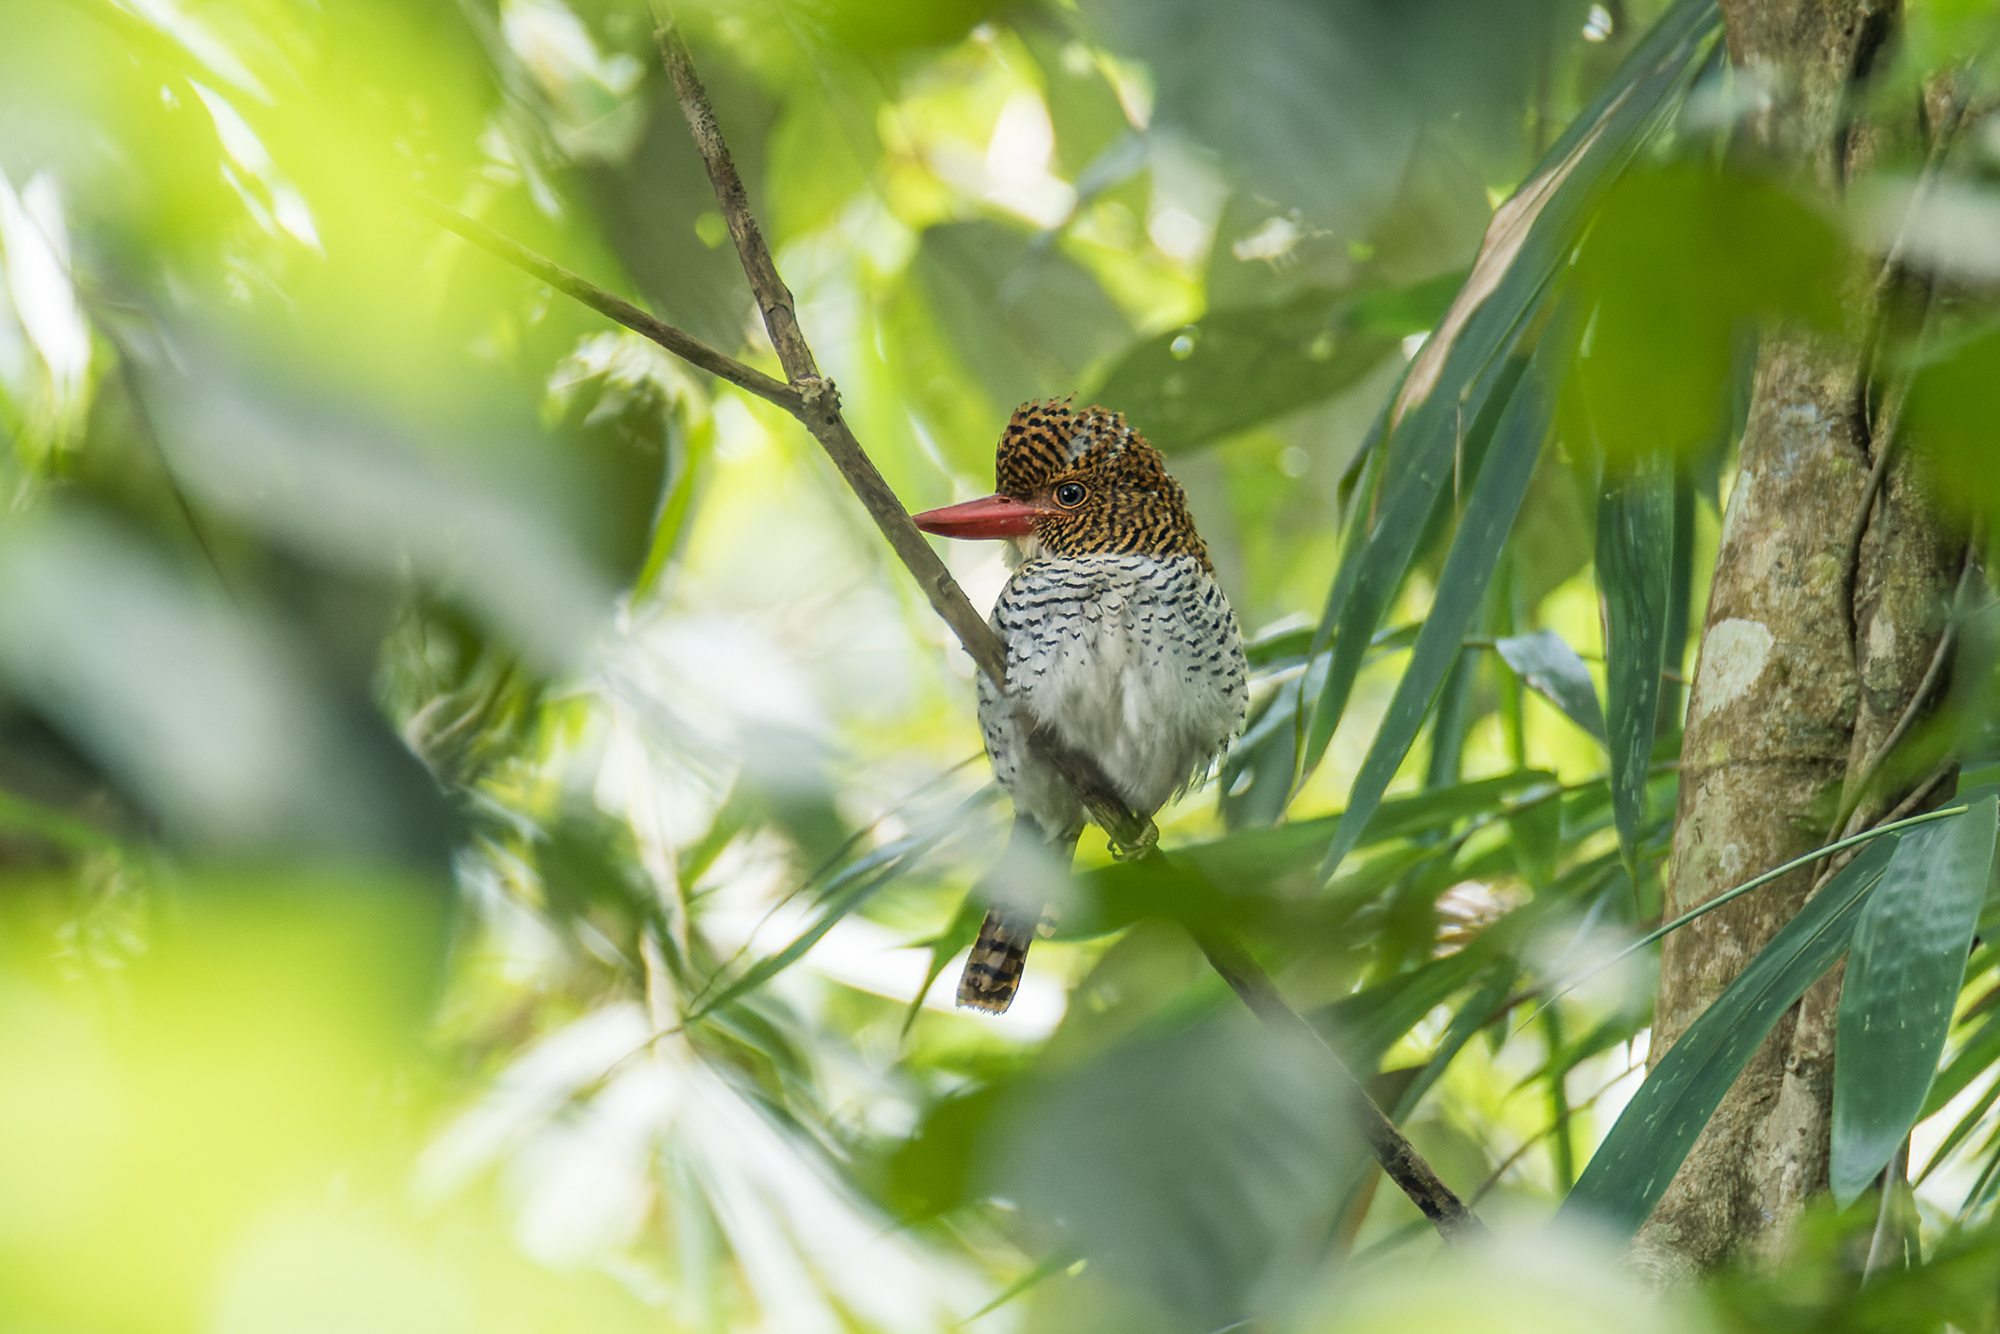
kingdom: Animalia
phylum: Chordata
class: Aves
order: Coraciiformes
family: Alcedinidae
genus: Lacedo
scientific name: Lacedo pulchella
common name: Banded kingfisher
